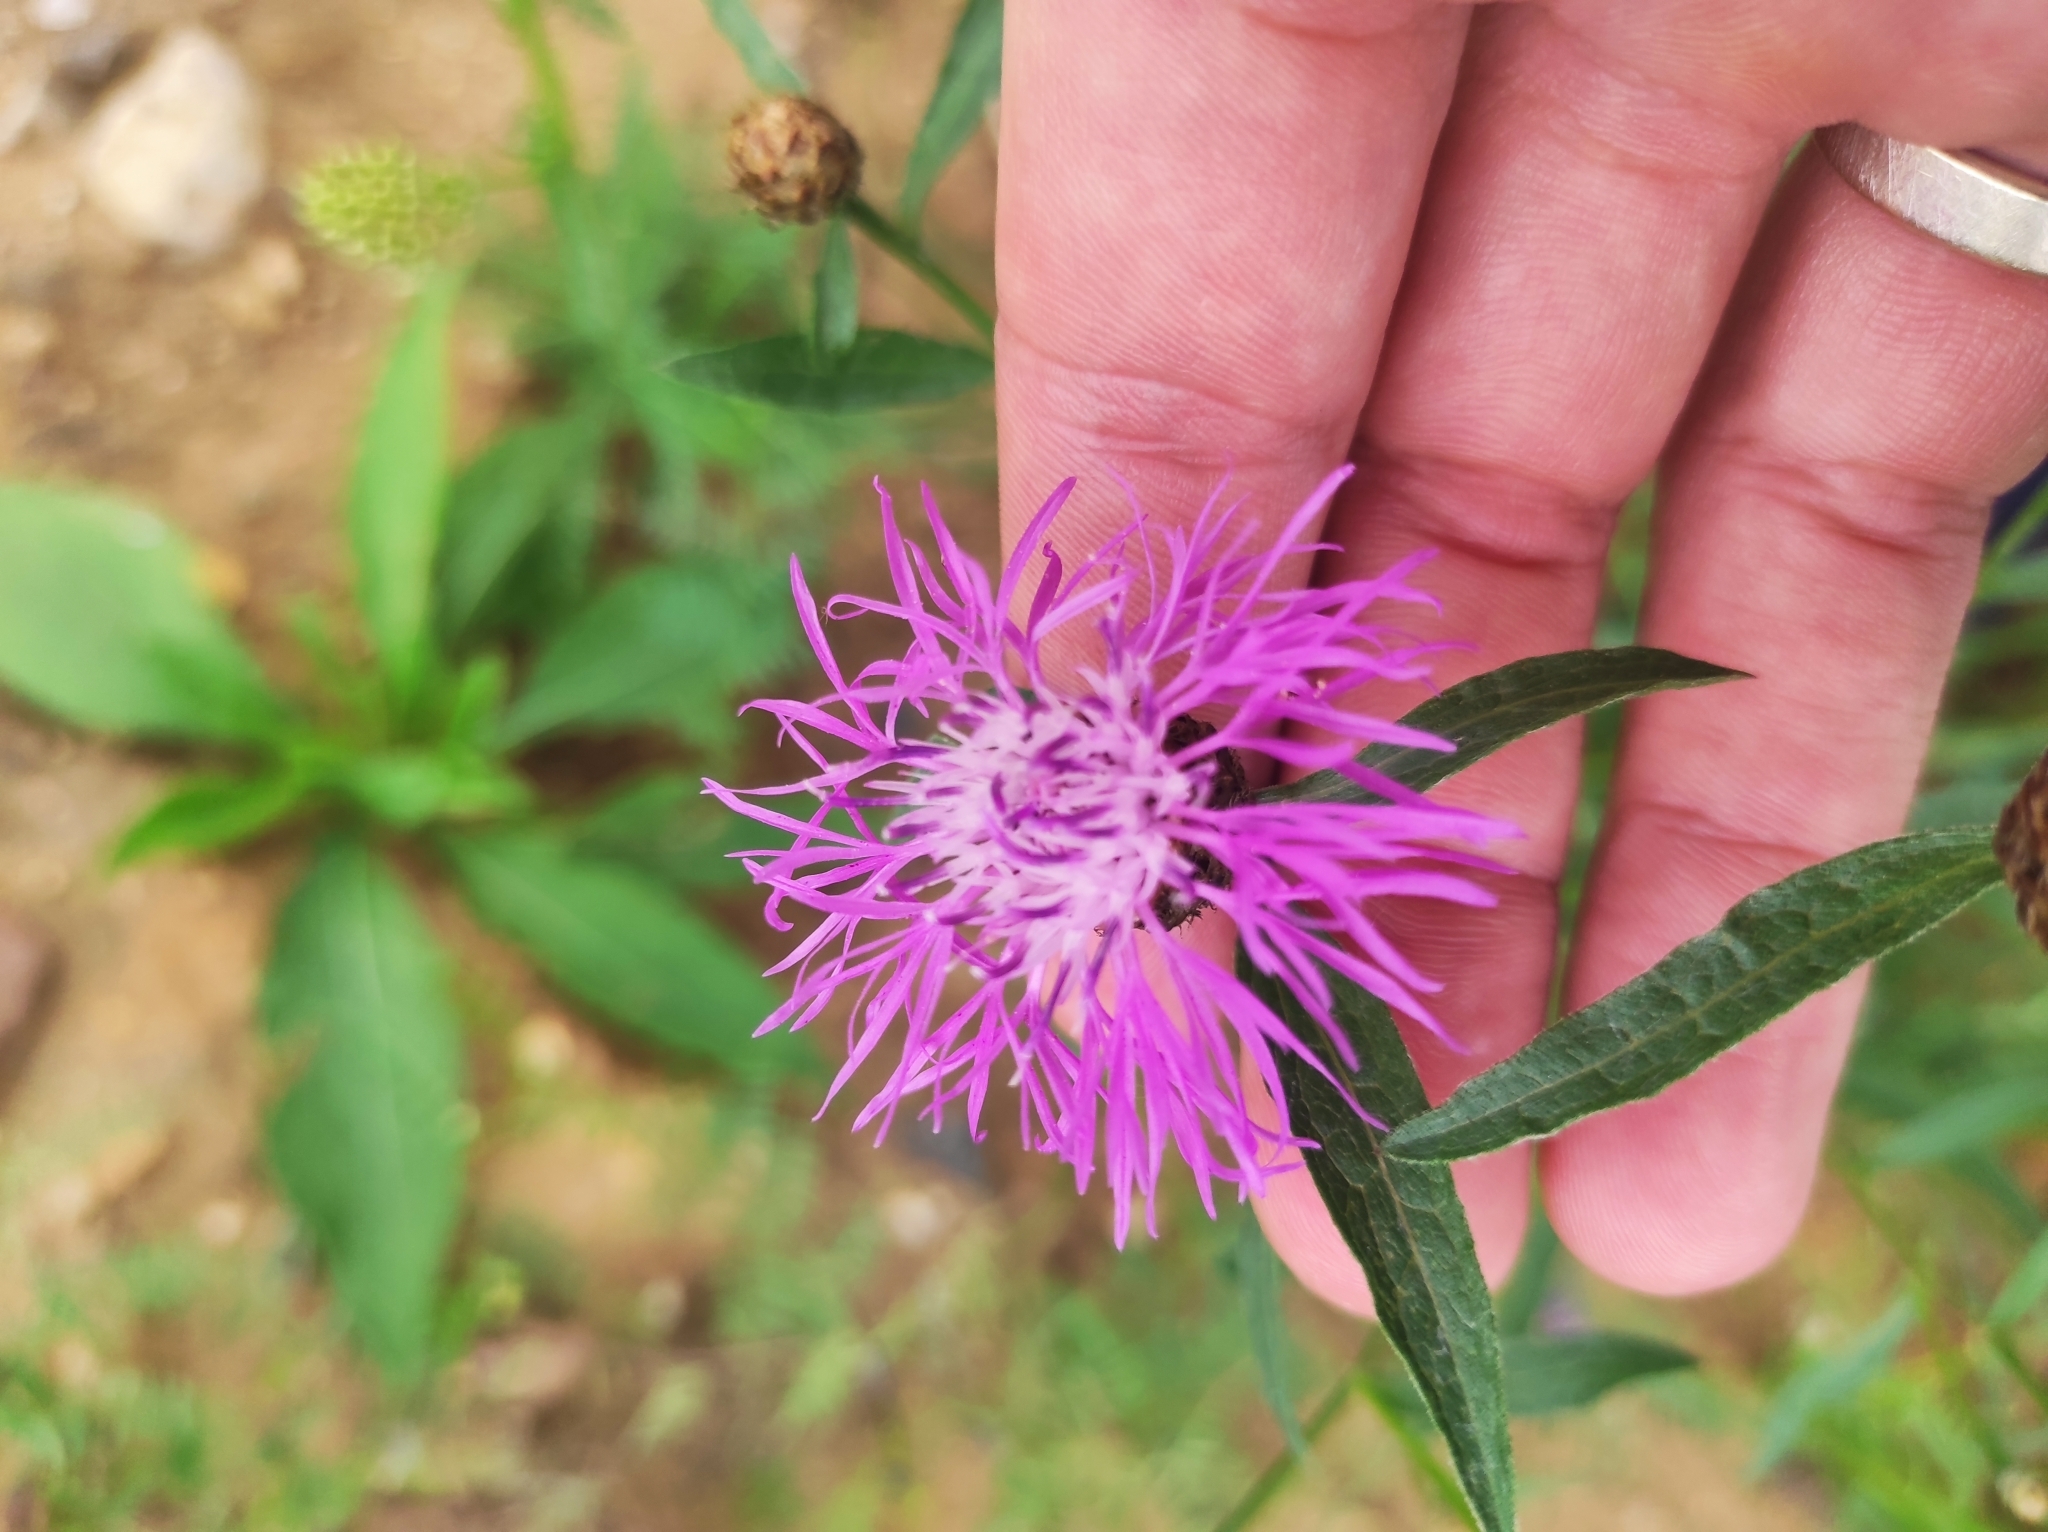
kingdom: Plantae
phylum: Tracheophyta
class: Magnoliopsida
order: Asterales
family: Asteraceae
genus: Centaurea
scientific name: Centaurea jacea
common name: Brown knapweed
